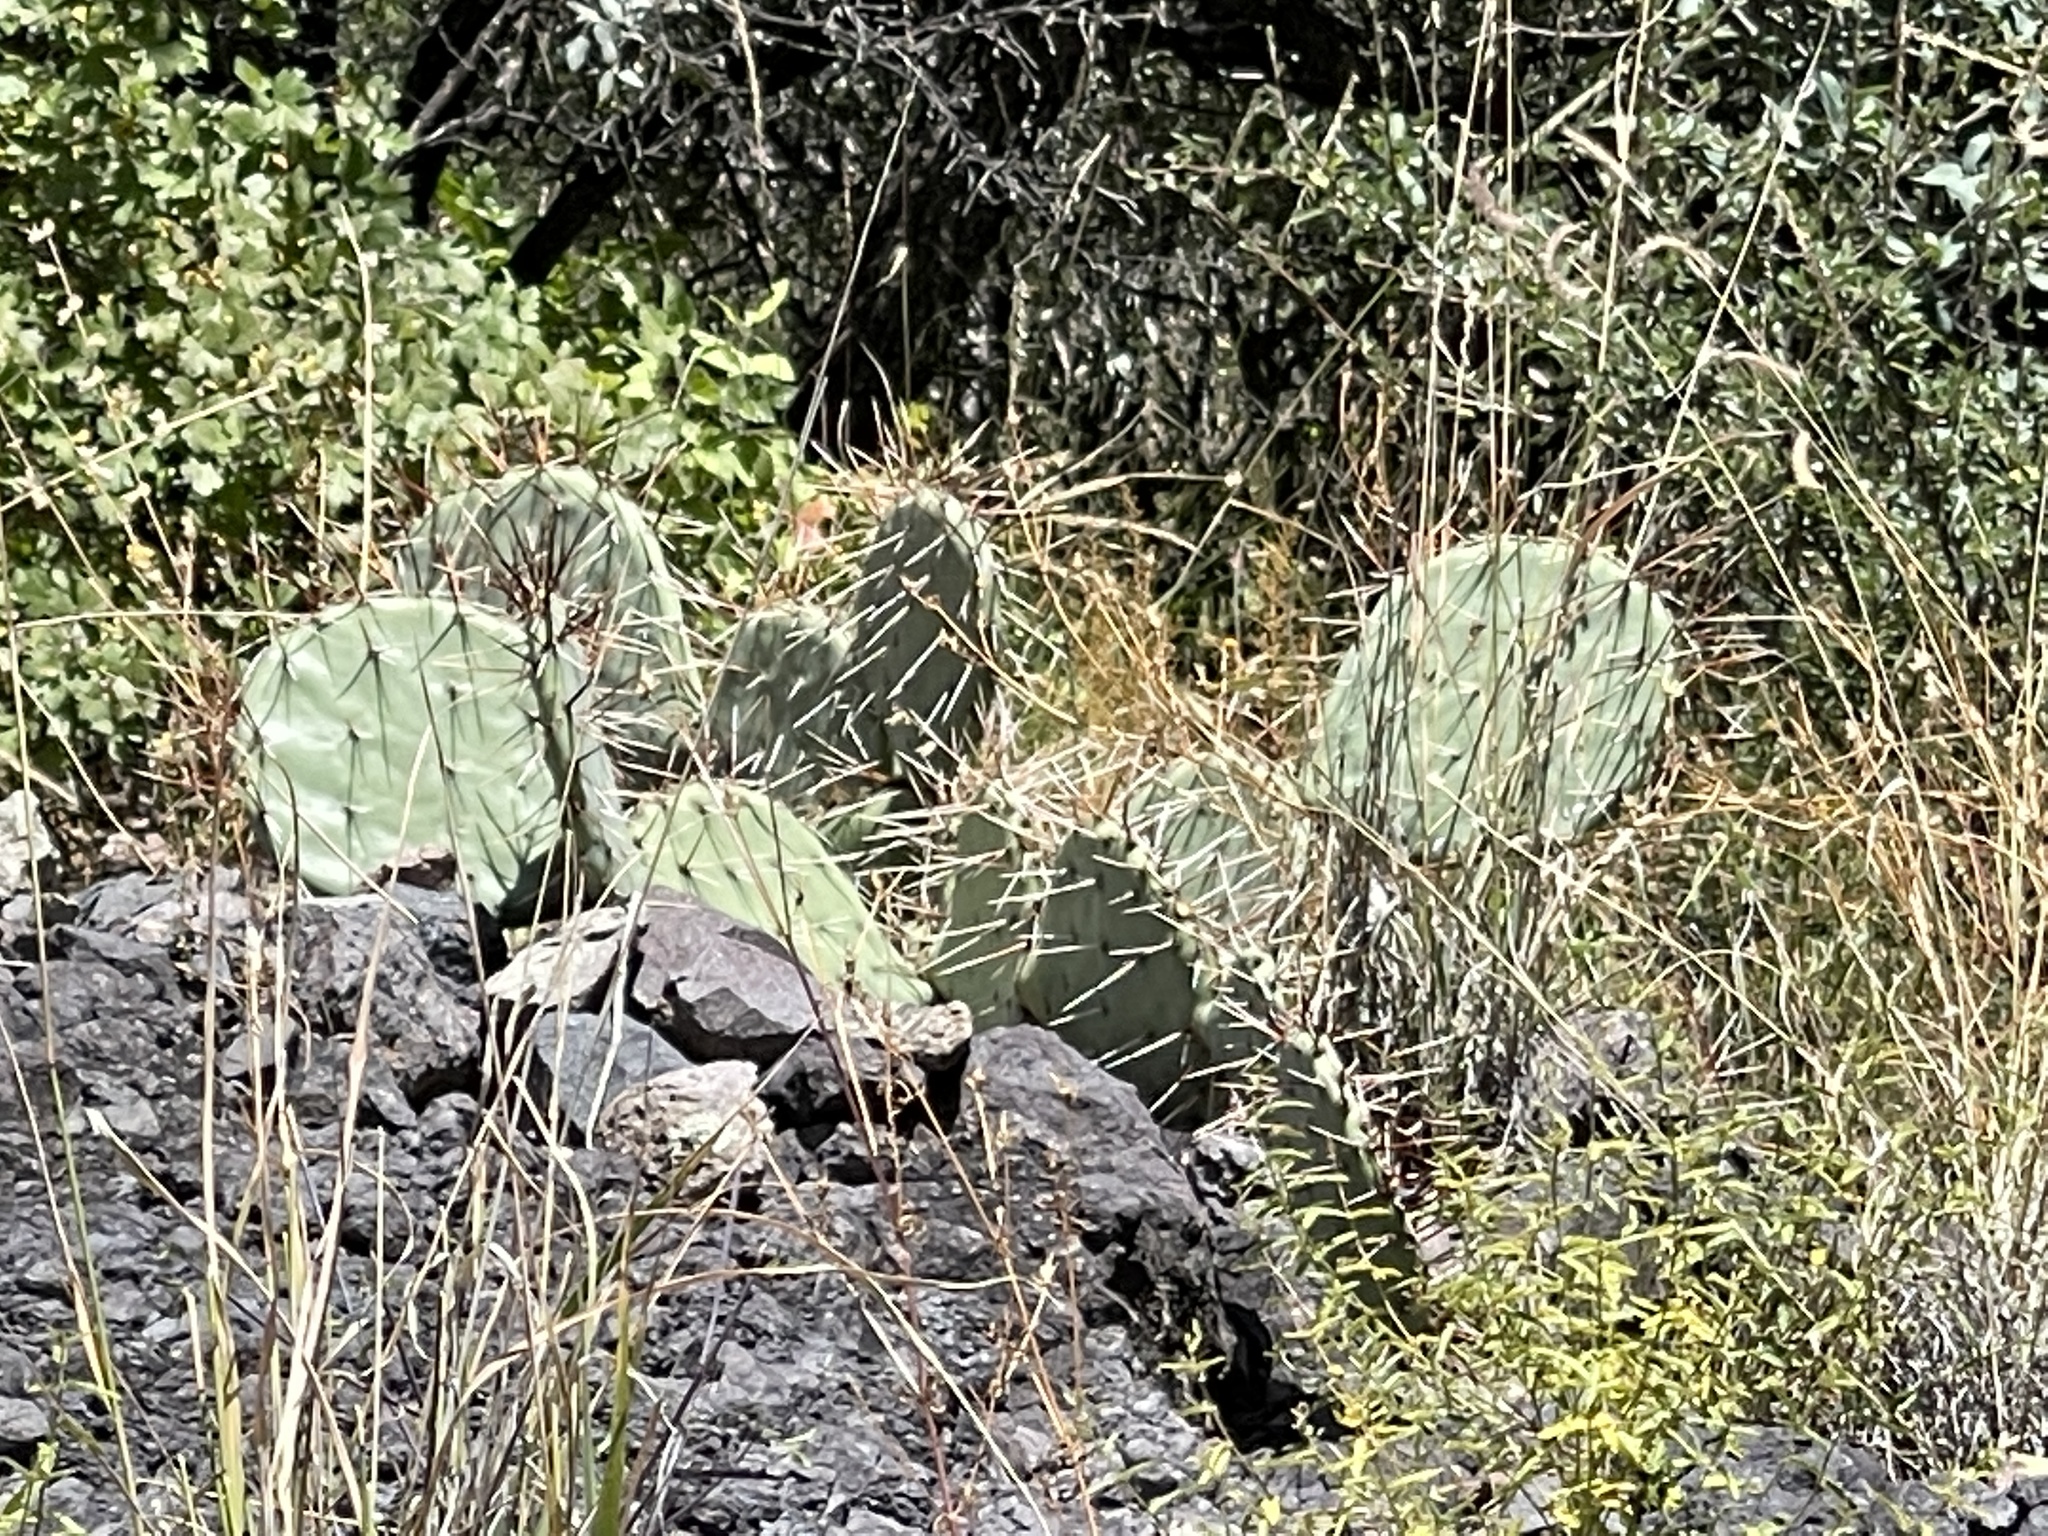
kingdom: Plantae
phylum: Tracheophyta
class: Magnoliopsida
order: Caryophyllales
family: Cactaceae
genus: Opuntia
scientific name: Opuntia engelmannii
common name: Cactus-apple
